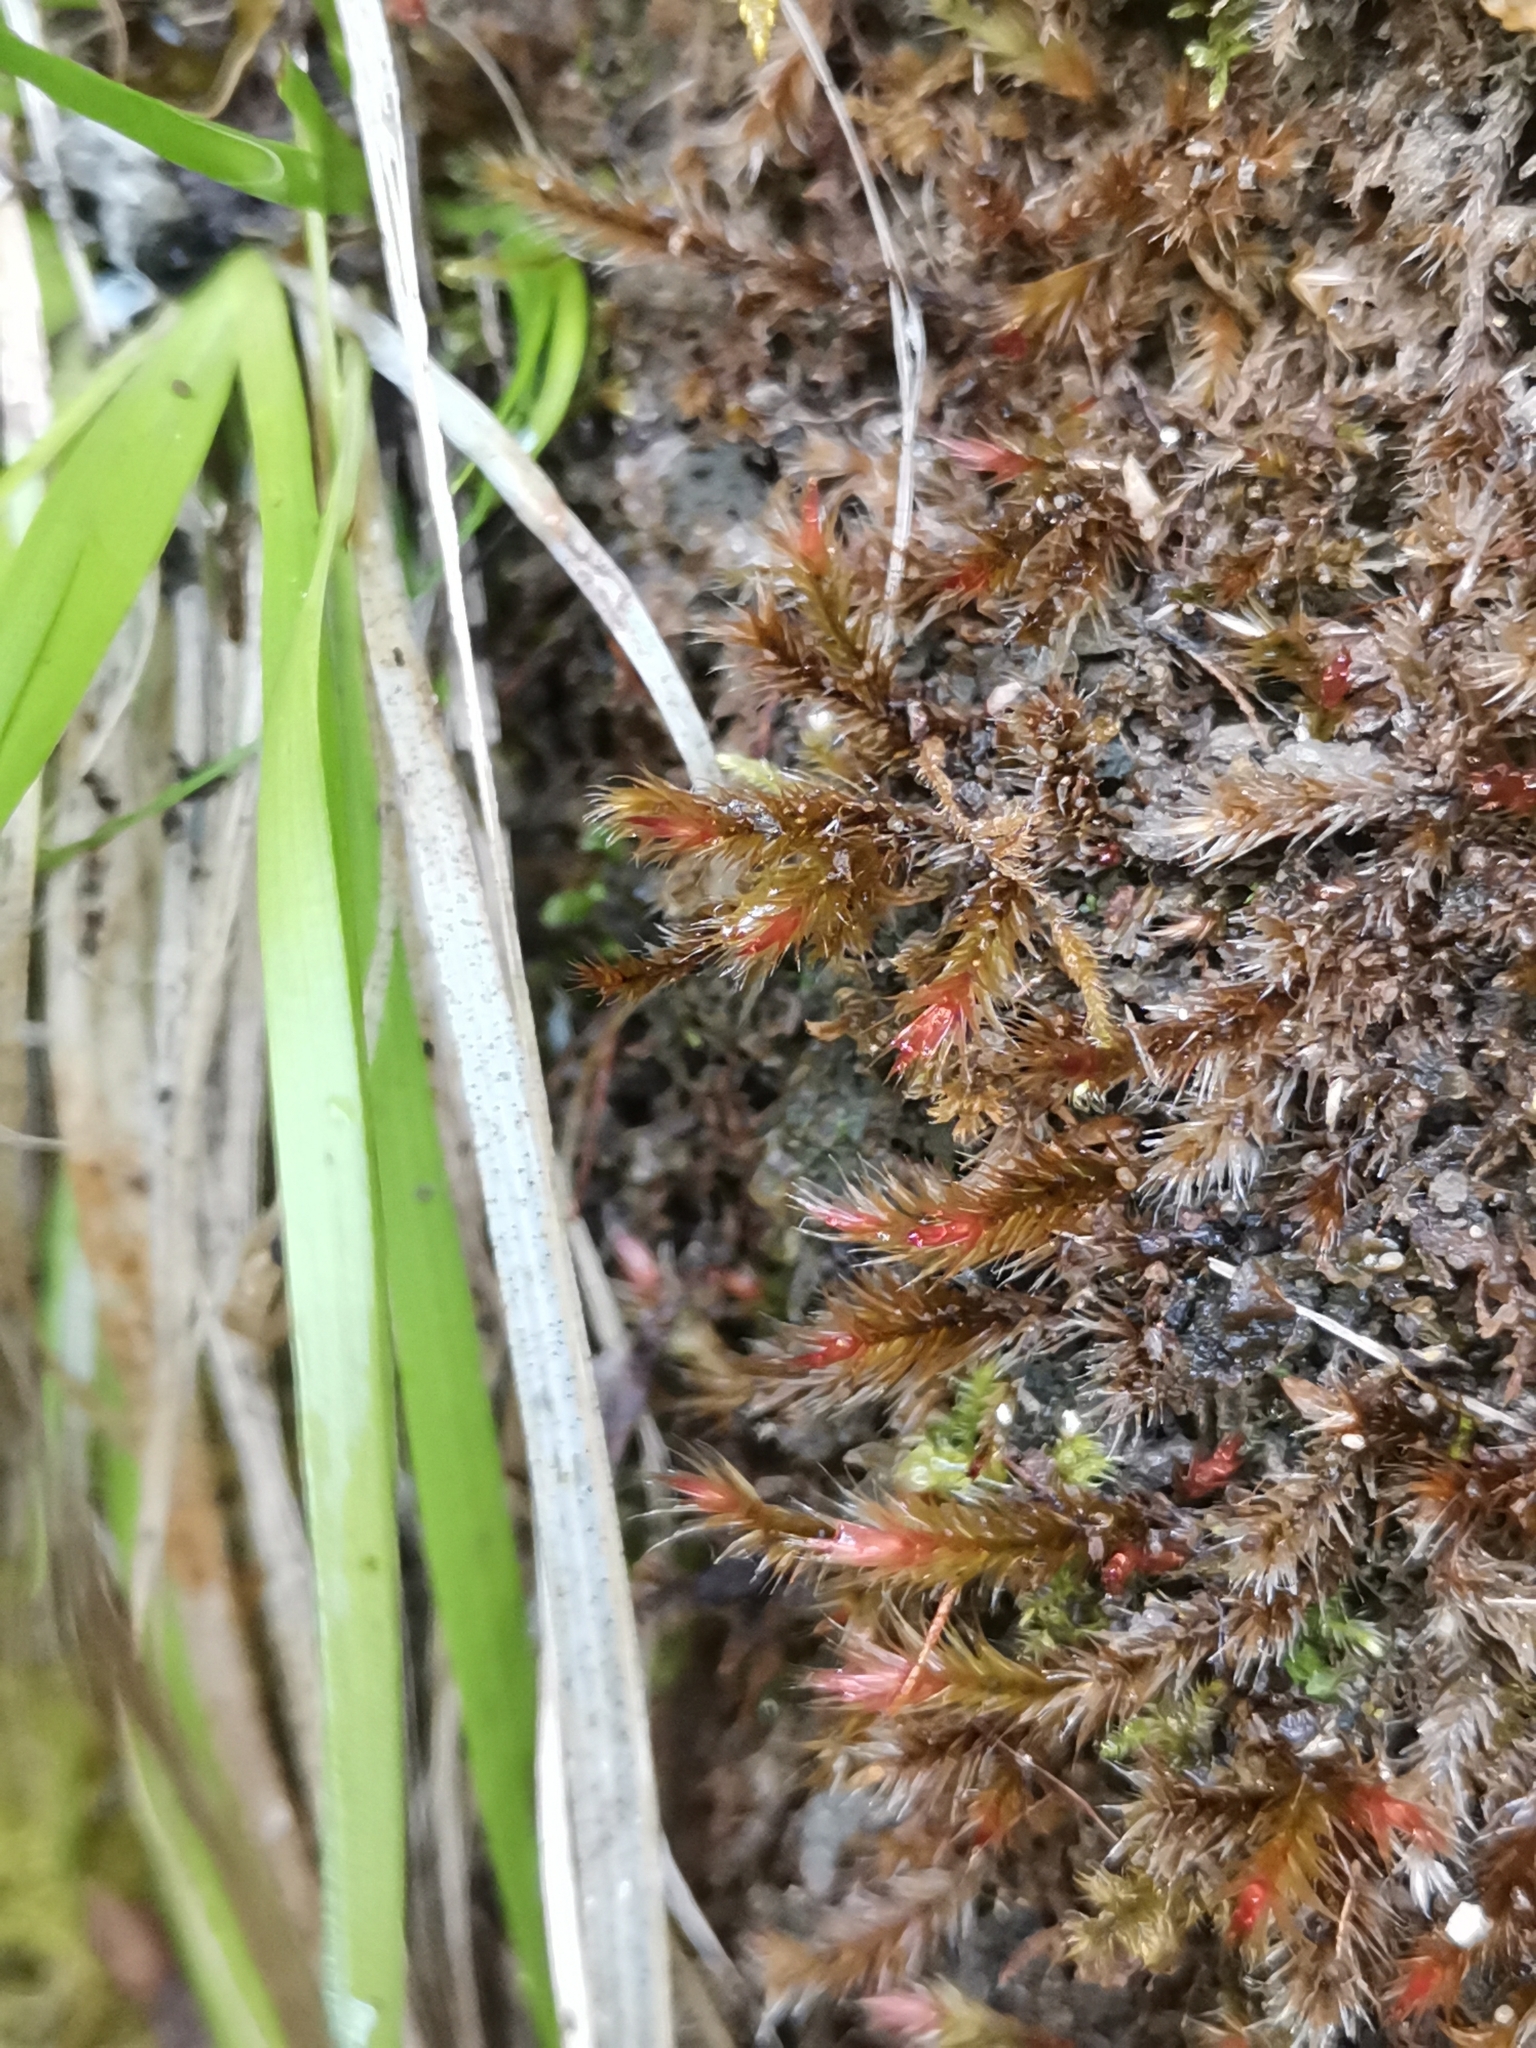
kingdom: Plantae
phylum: Bryophyta
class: Bryopsida
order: Hypnales
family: Plagiotheciaceae
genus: Orthothecium
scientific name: Orthothecium rufescens
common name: Red leskea
